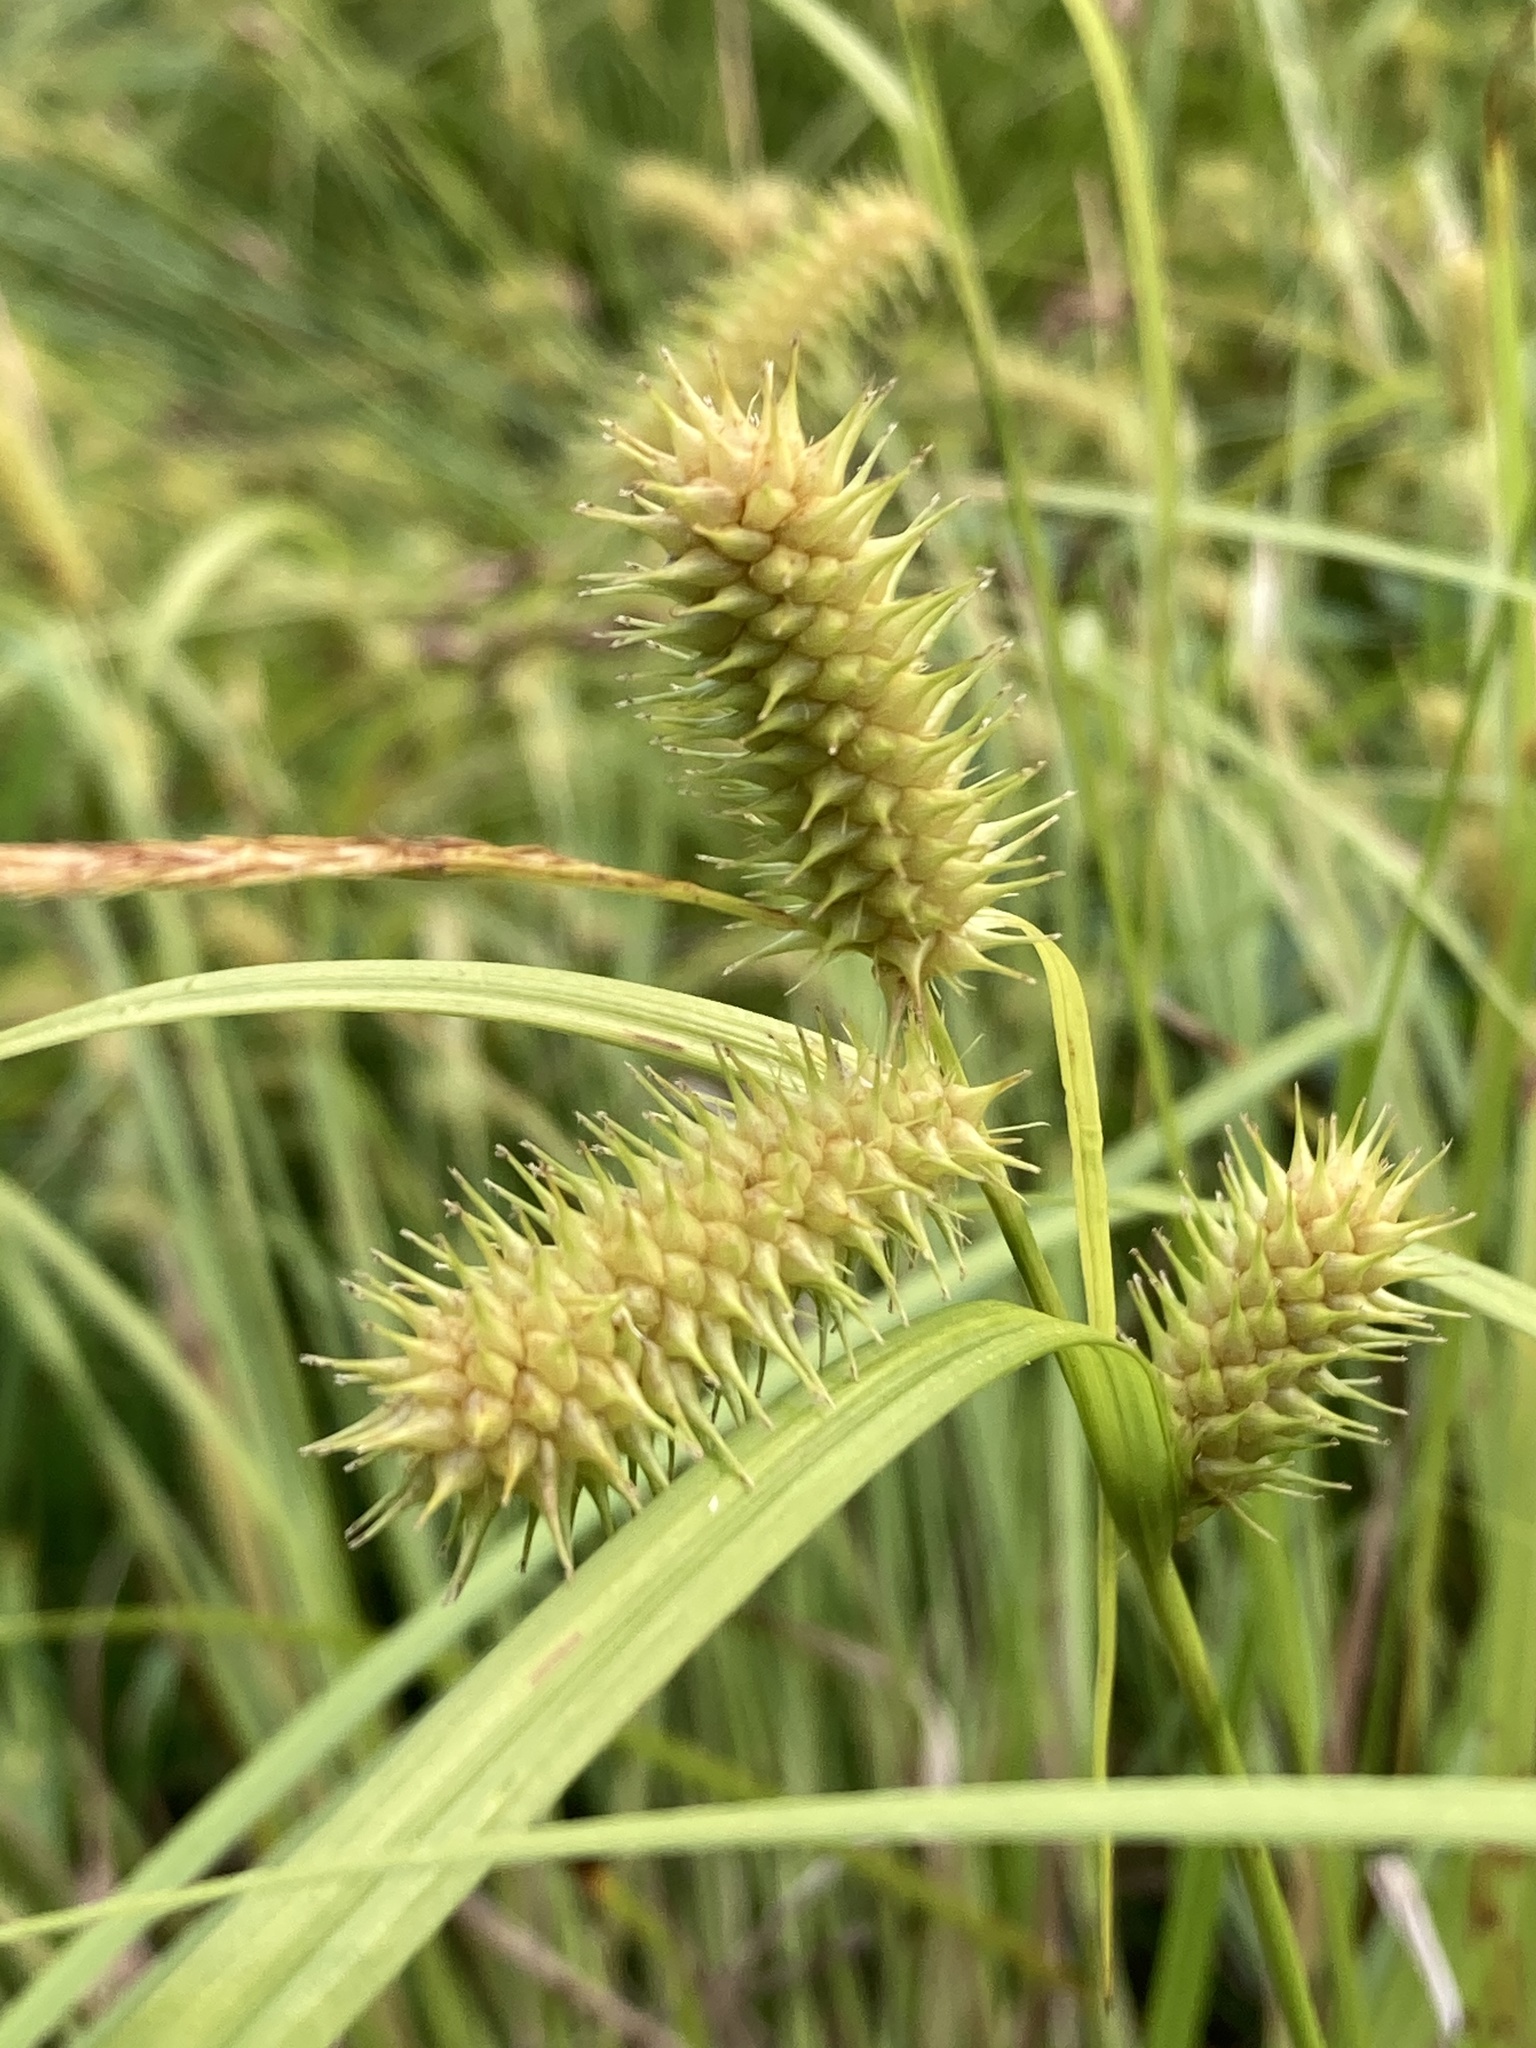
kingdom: Plantae
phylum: Tracheophyta
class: Liliopsida
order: Poales
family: Cyperaceae
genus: Carex
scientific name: Carex lurida
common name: Sallow sedge
